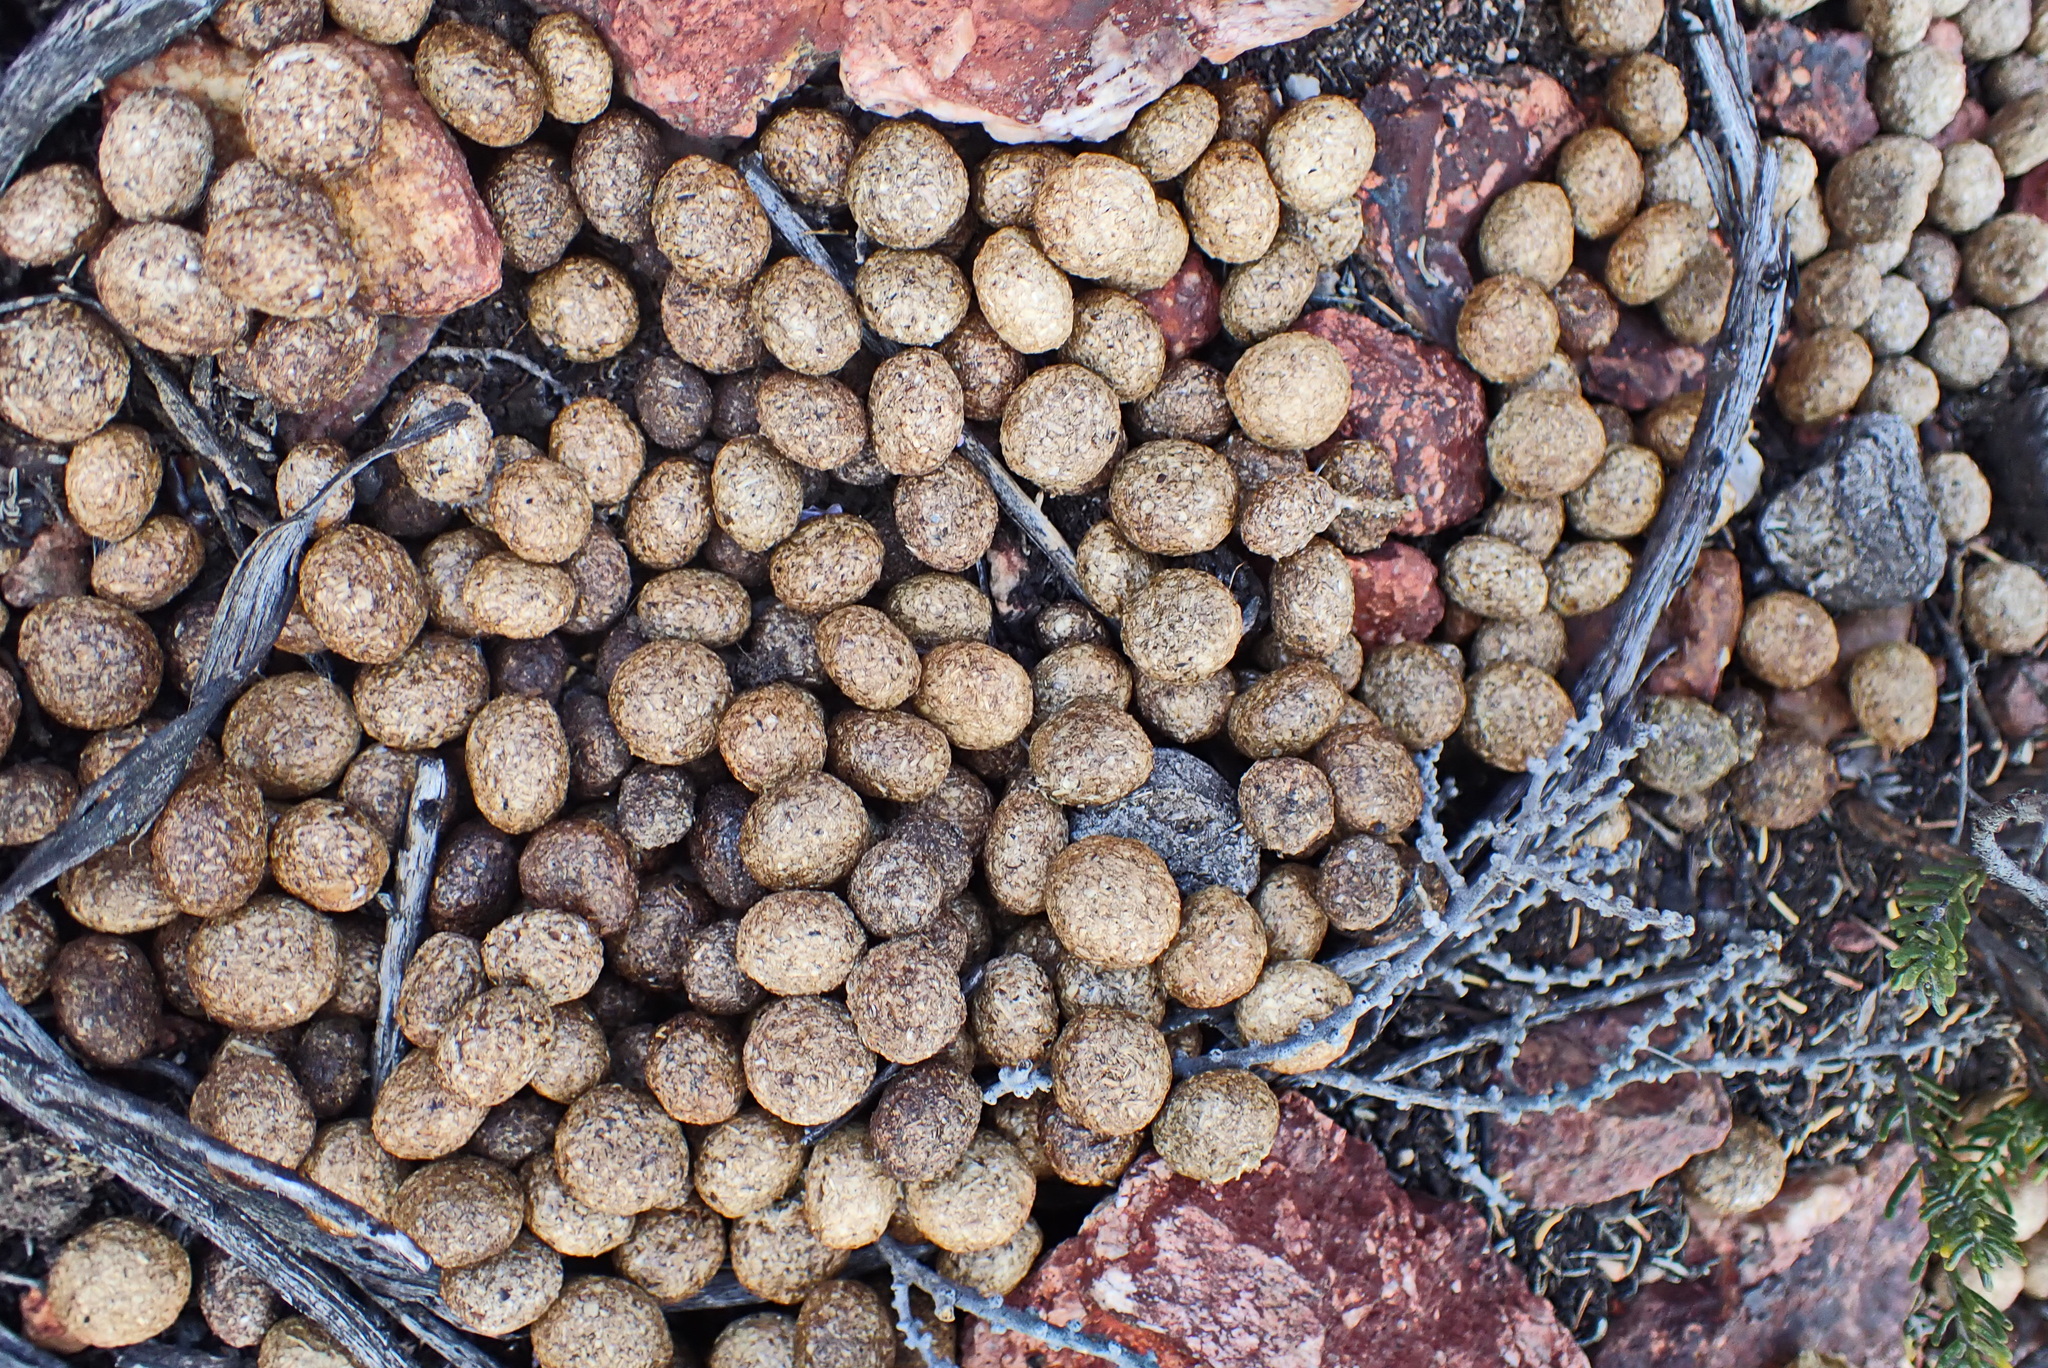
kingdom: Animalia
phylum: Chordata
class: Mammalia
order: Lagomorpha
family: Leporidae
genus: Pronolagus
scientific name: Pronolagus saundersiae
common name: Hewitt's red rock hare
